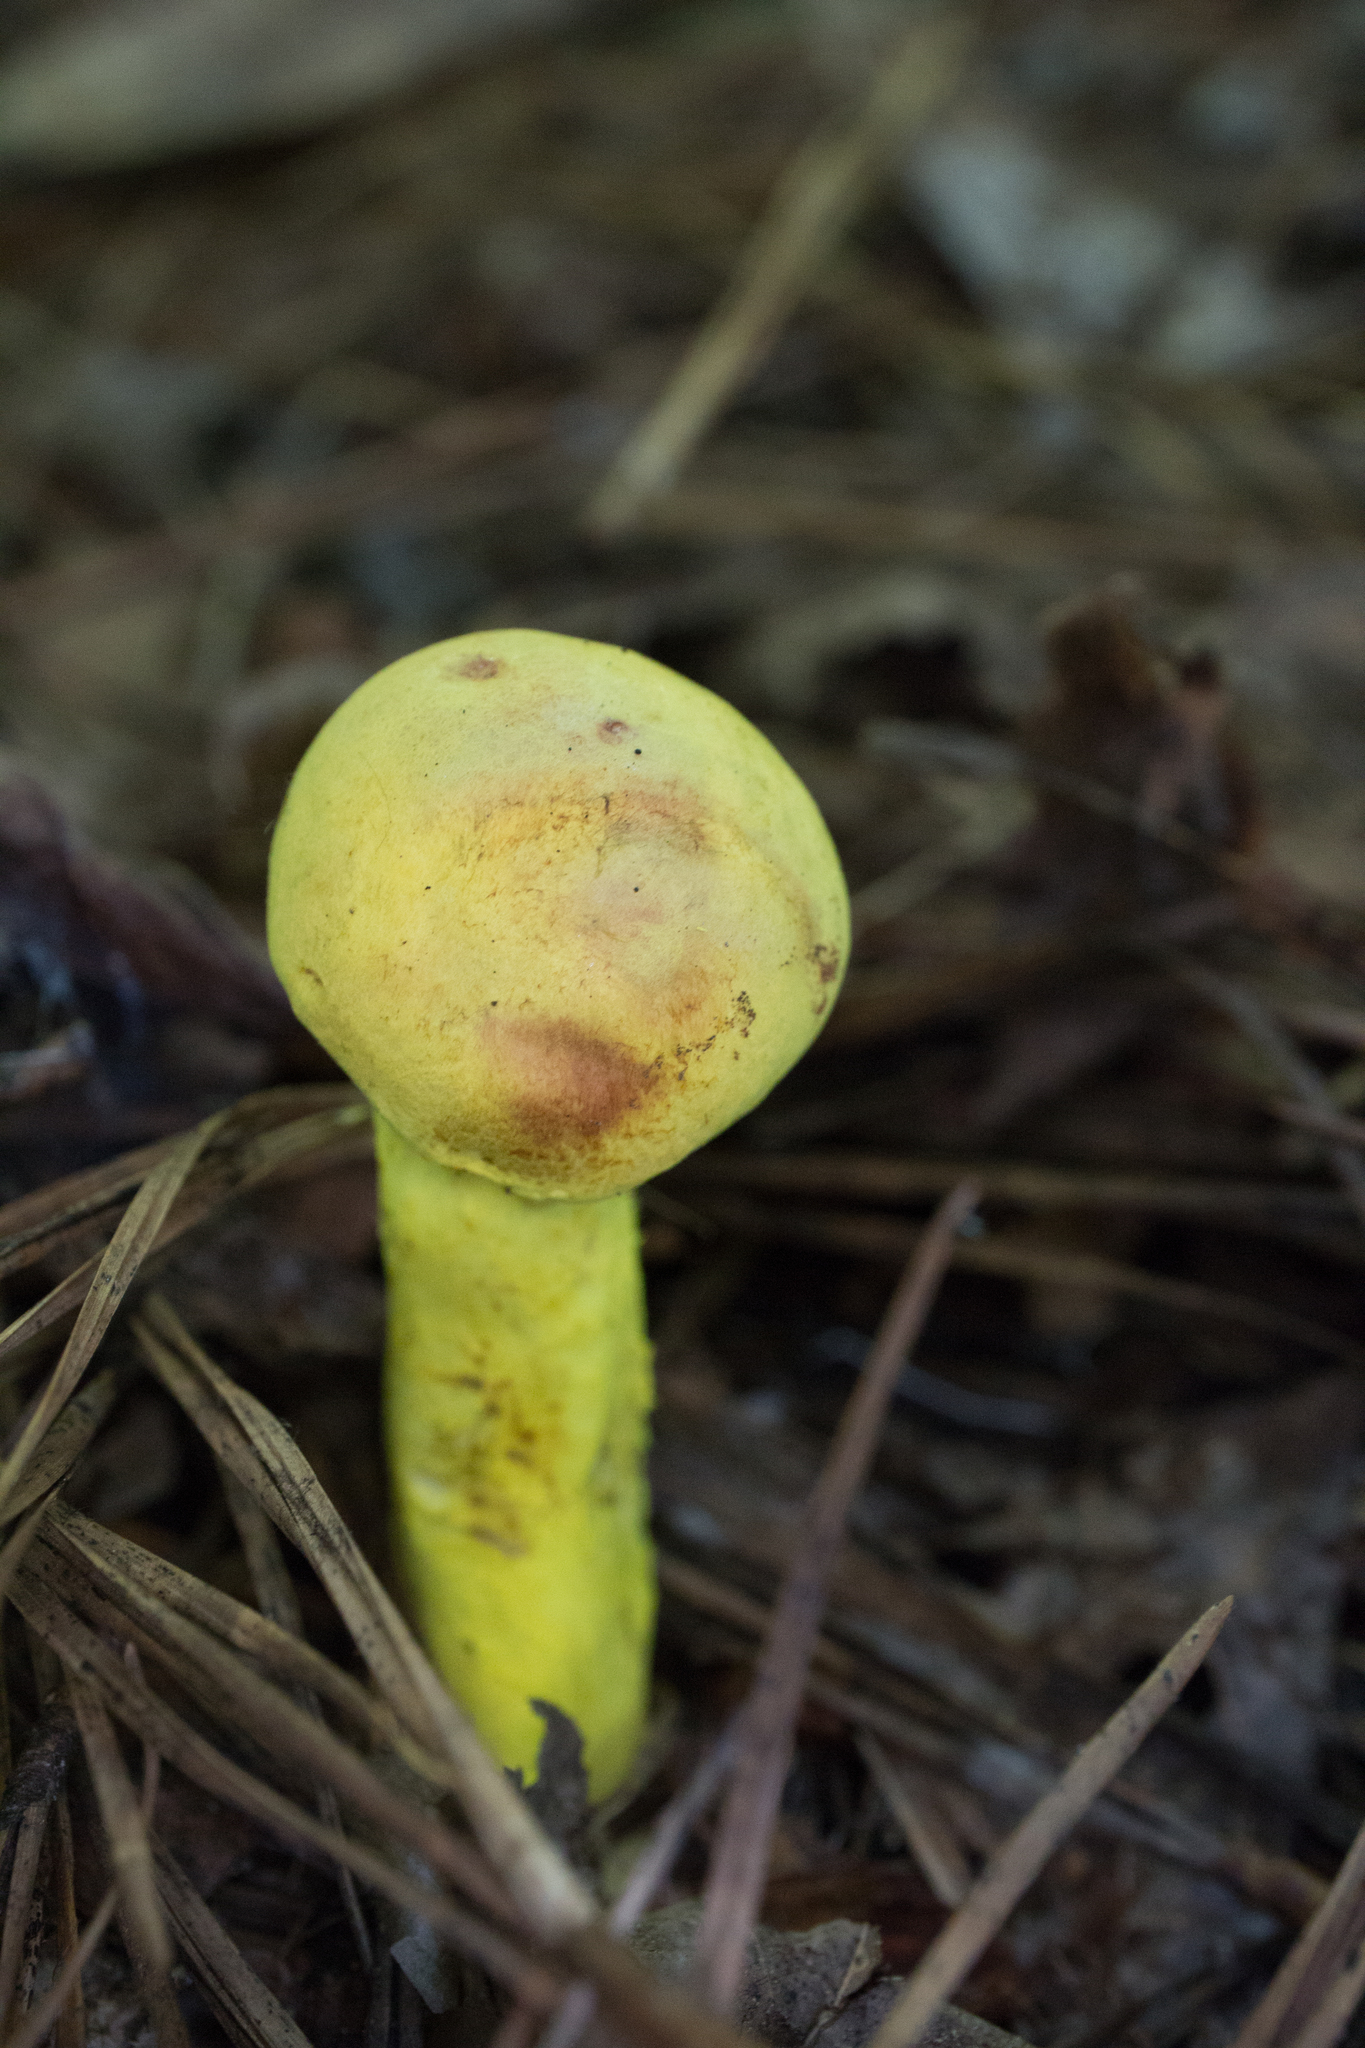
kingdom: Fungi
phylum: Basidiomycota
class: Agaricomycetes
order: Boletales
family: Boletaceae
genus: Pulveroboletus
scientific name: Pulveroboletus ravenelii
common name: Powdery sulfur bolete
